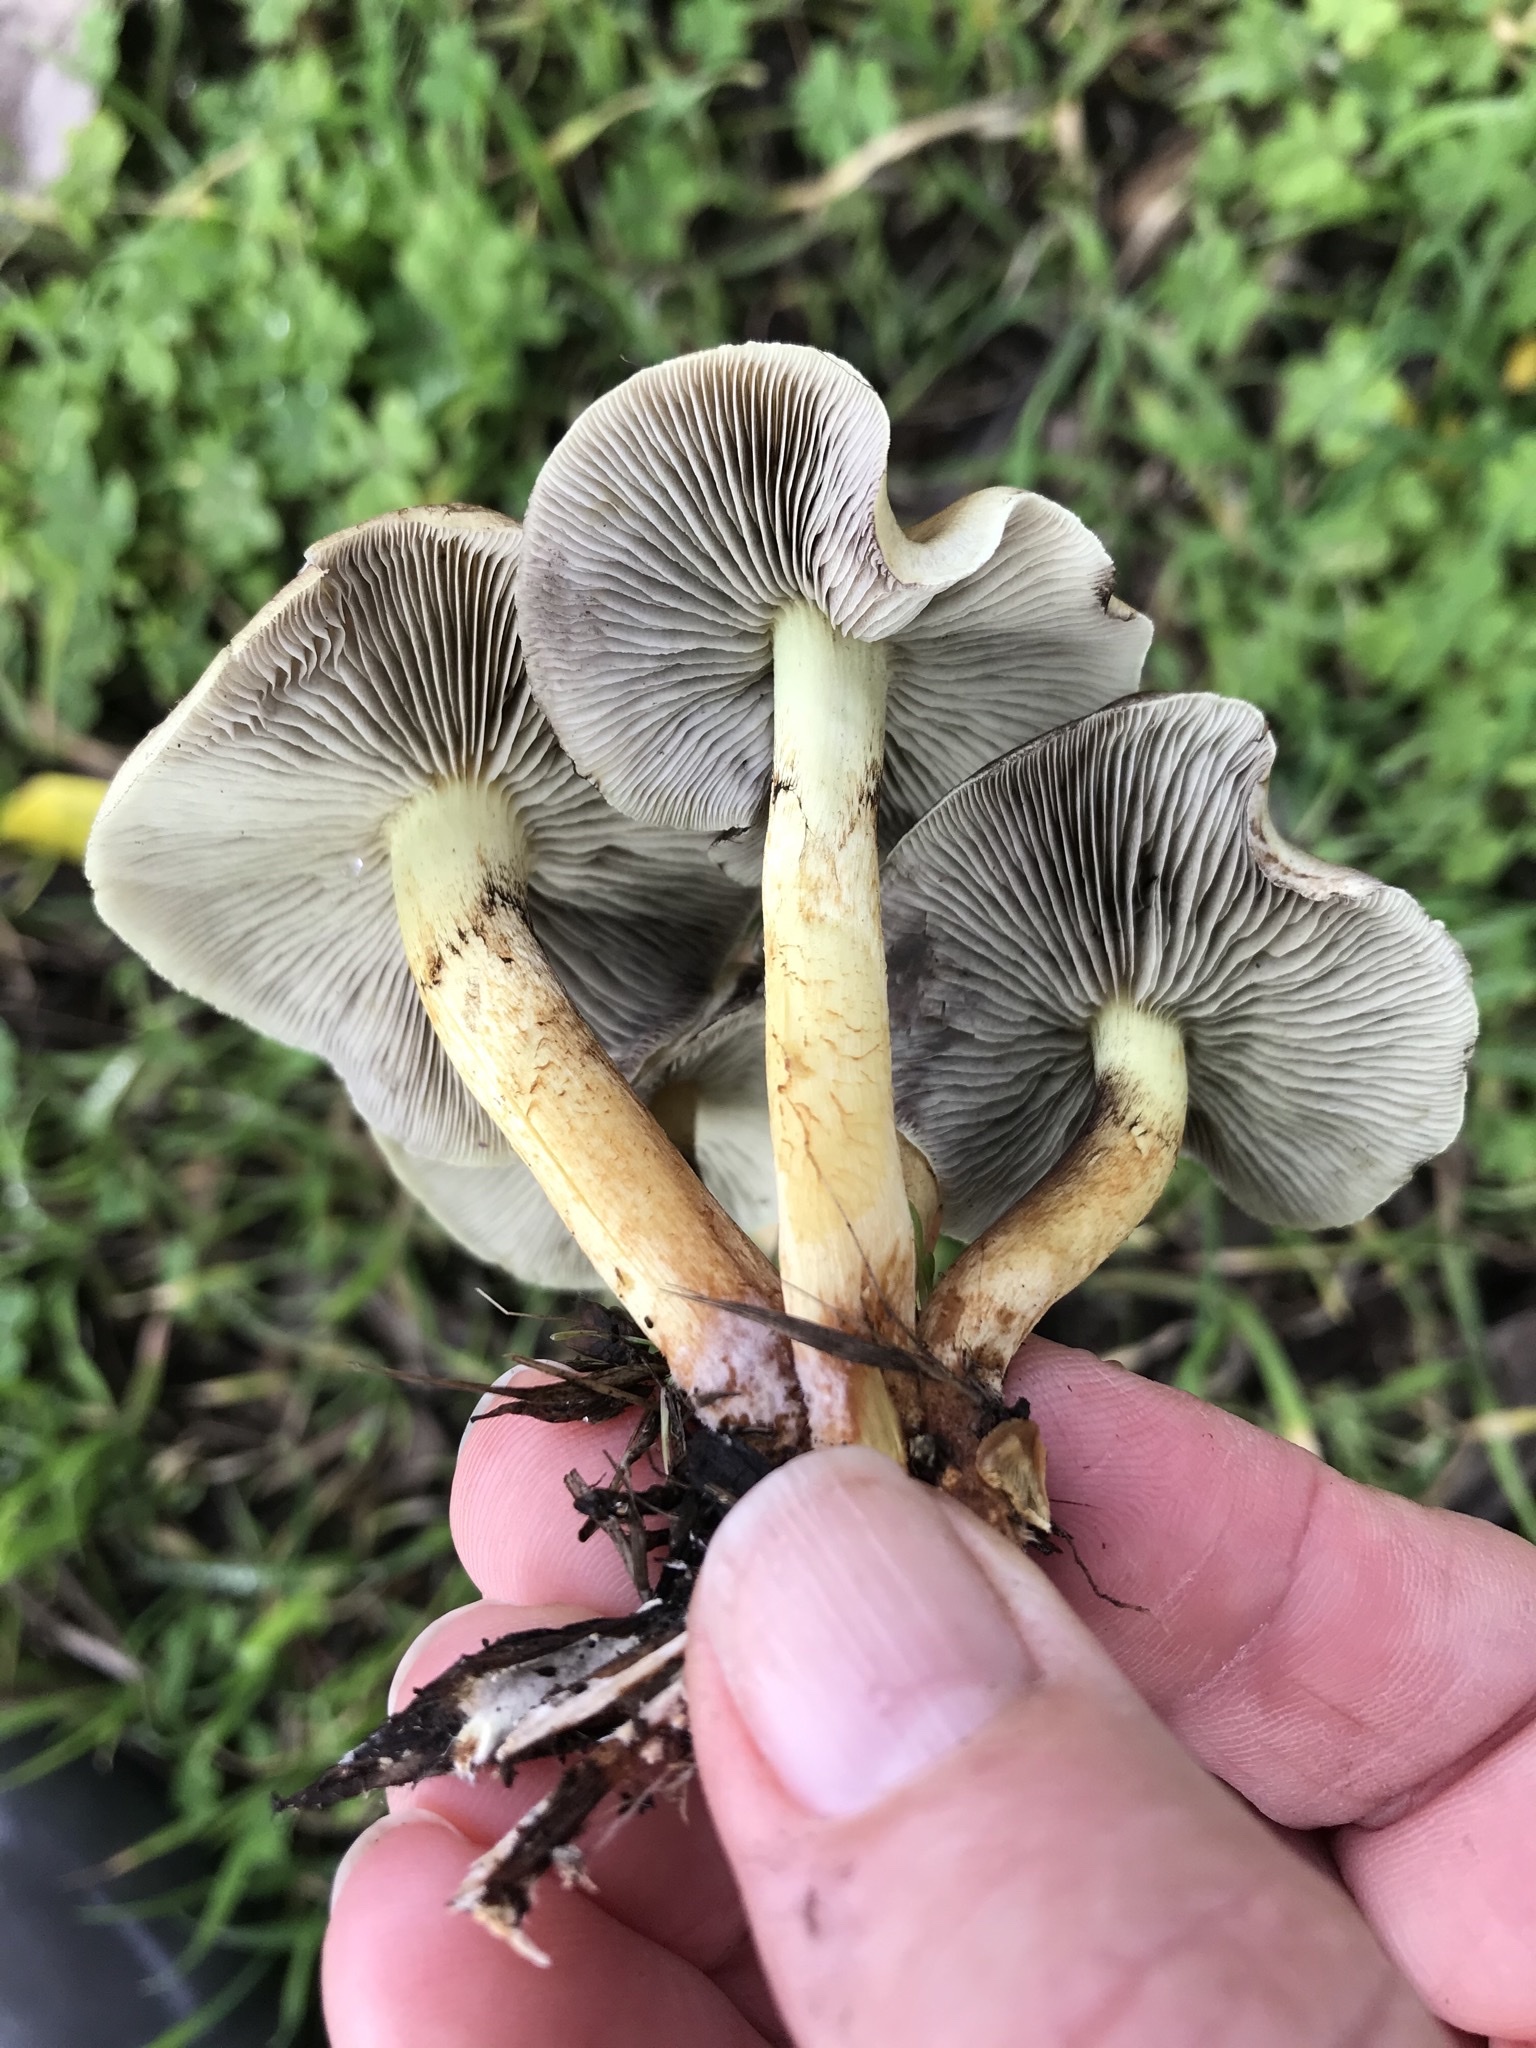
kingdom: Fungi
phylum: Basidiomycota
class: Agaricomycetes
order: Agaricales
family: Strophariaceae
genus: Hypholoma
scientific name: Hypholoma fasciculare
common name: Sulphur tuft
